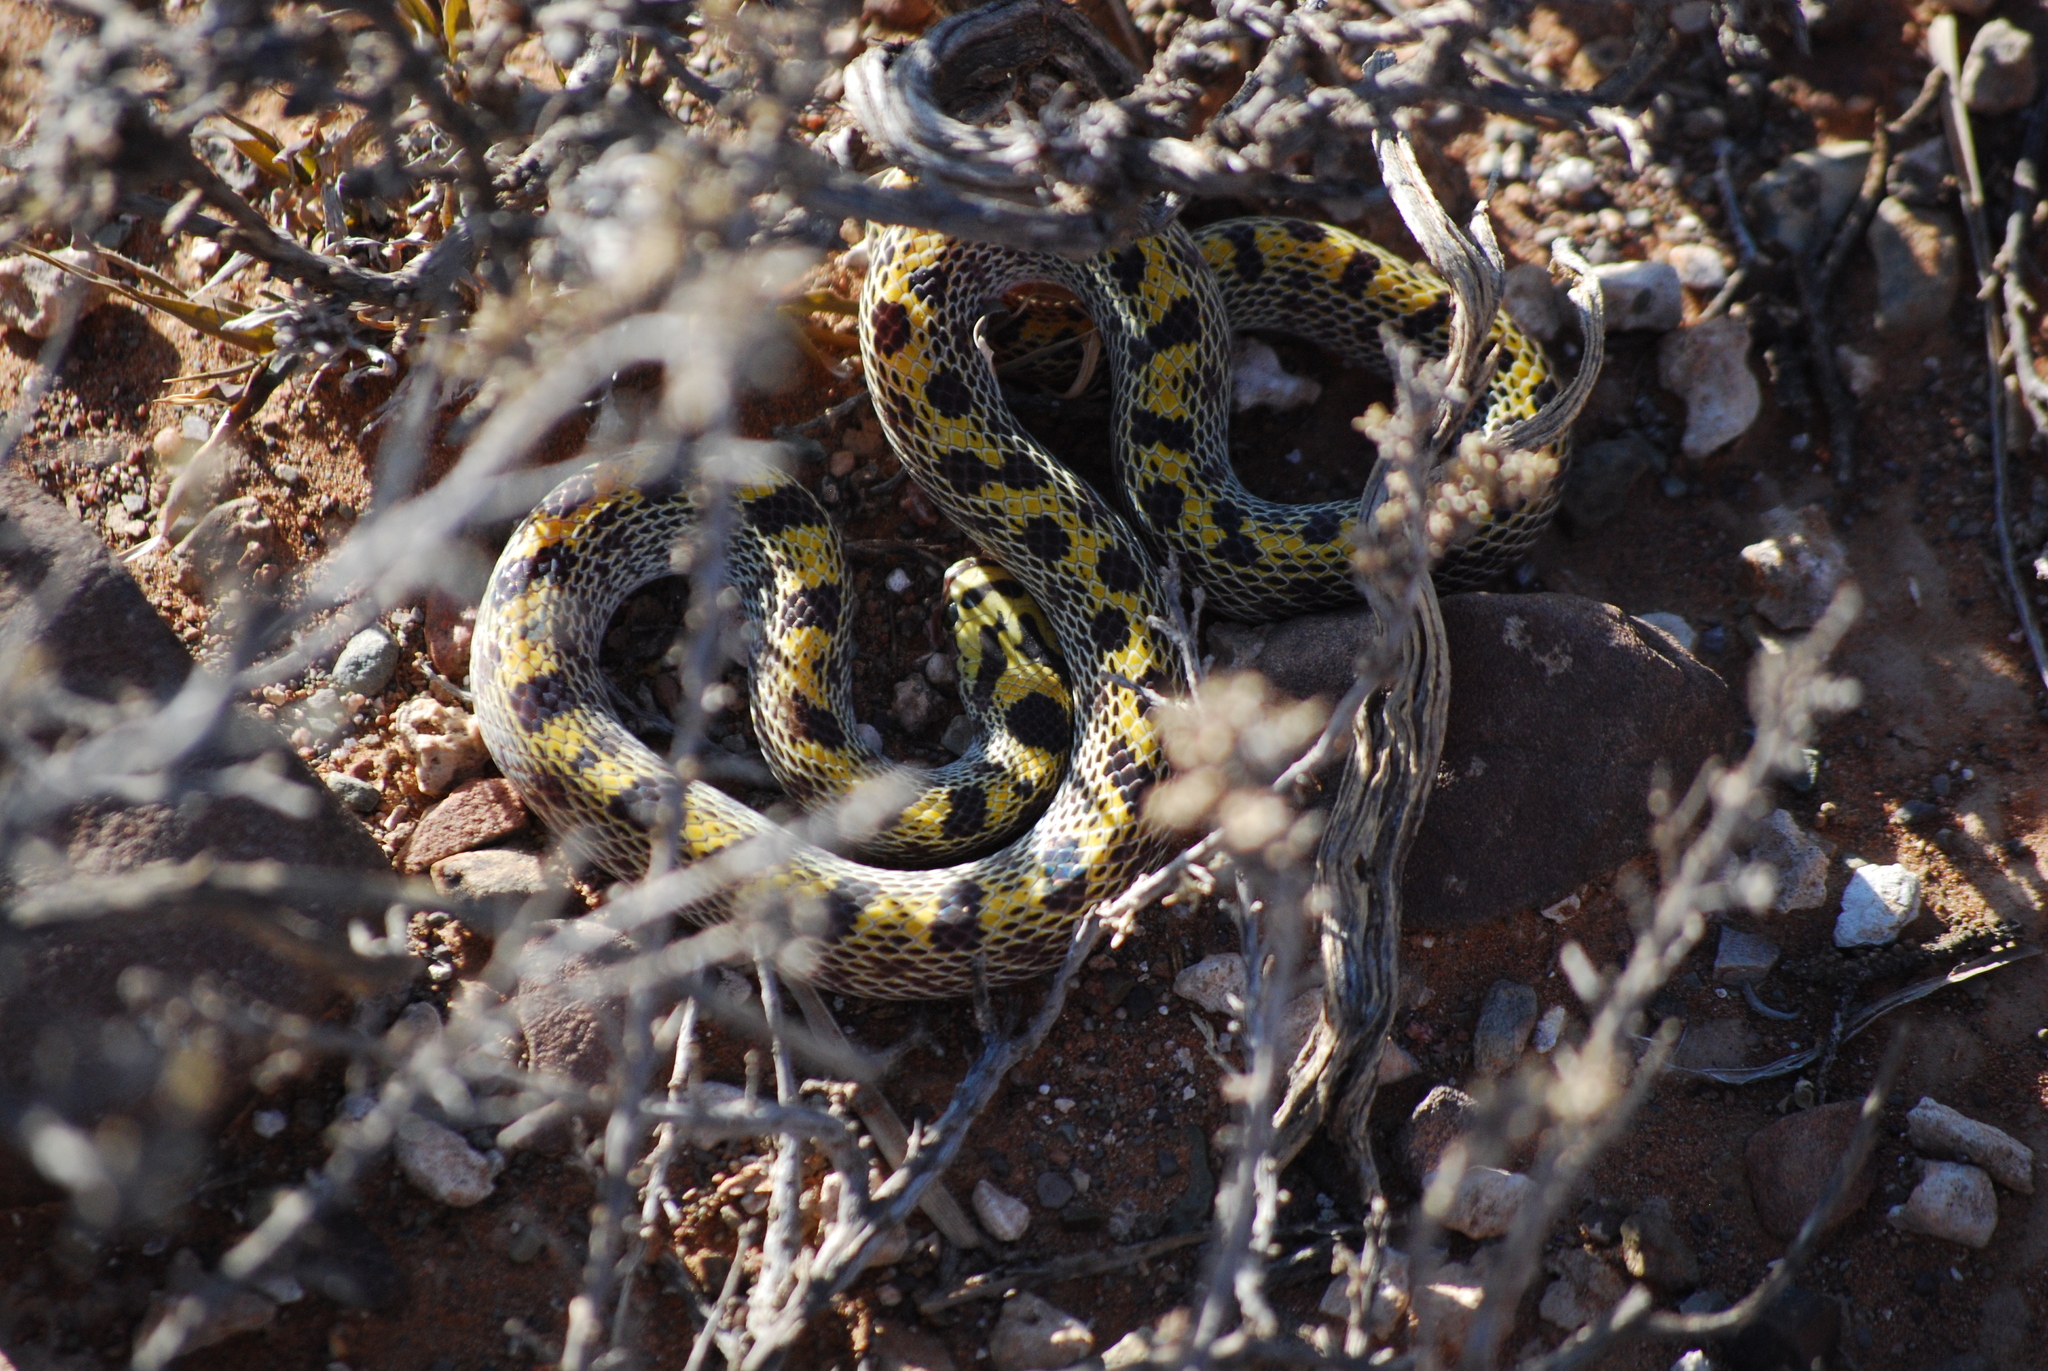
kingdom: Animalia
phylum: Chordata
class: Squamata
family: Lamprophiidae
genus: Lamprophis
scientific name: Lamprophis fiskii
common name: Fisk's house snake
